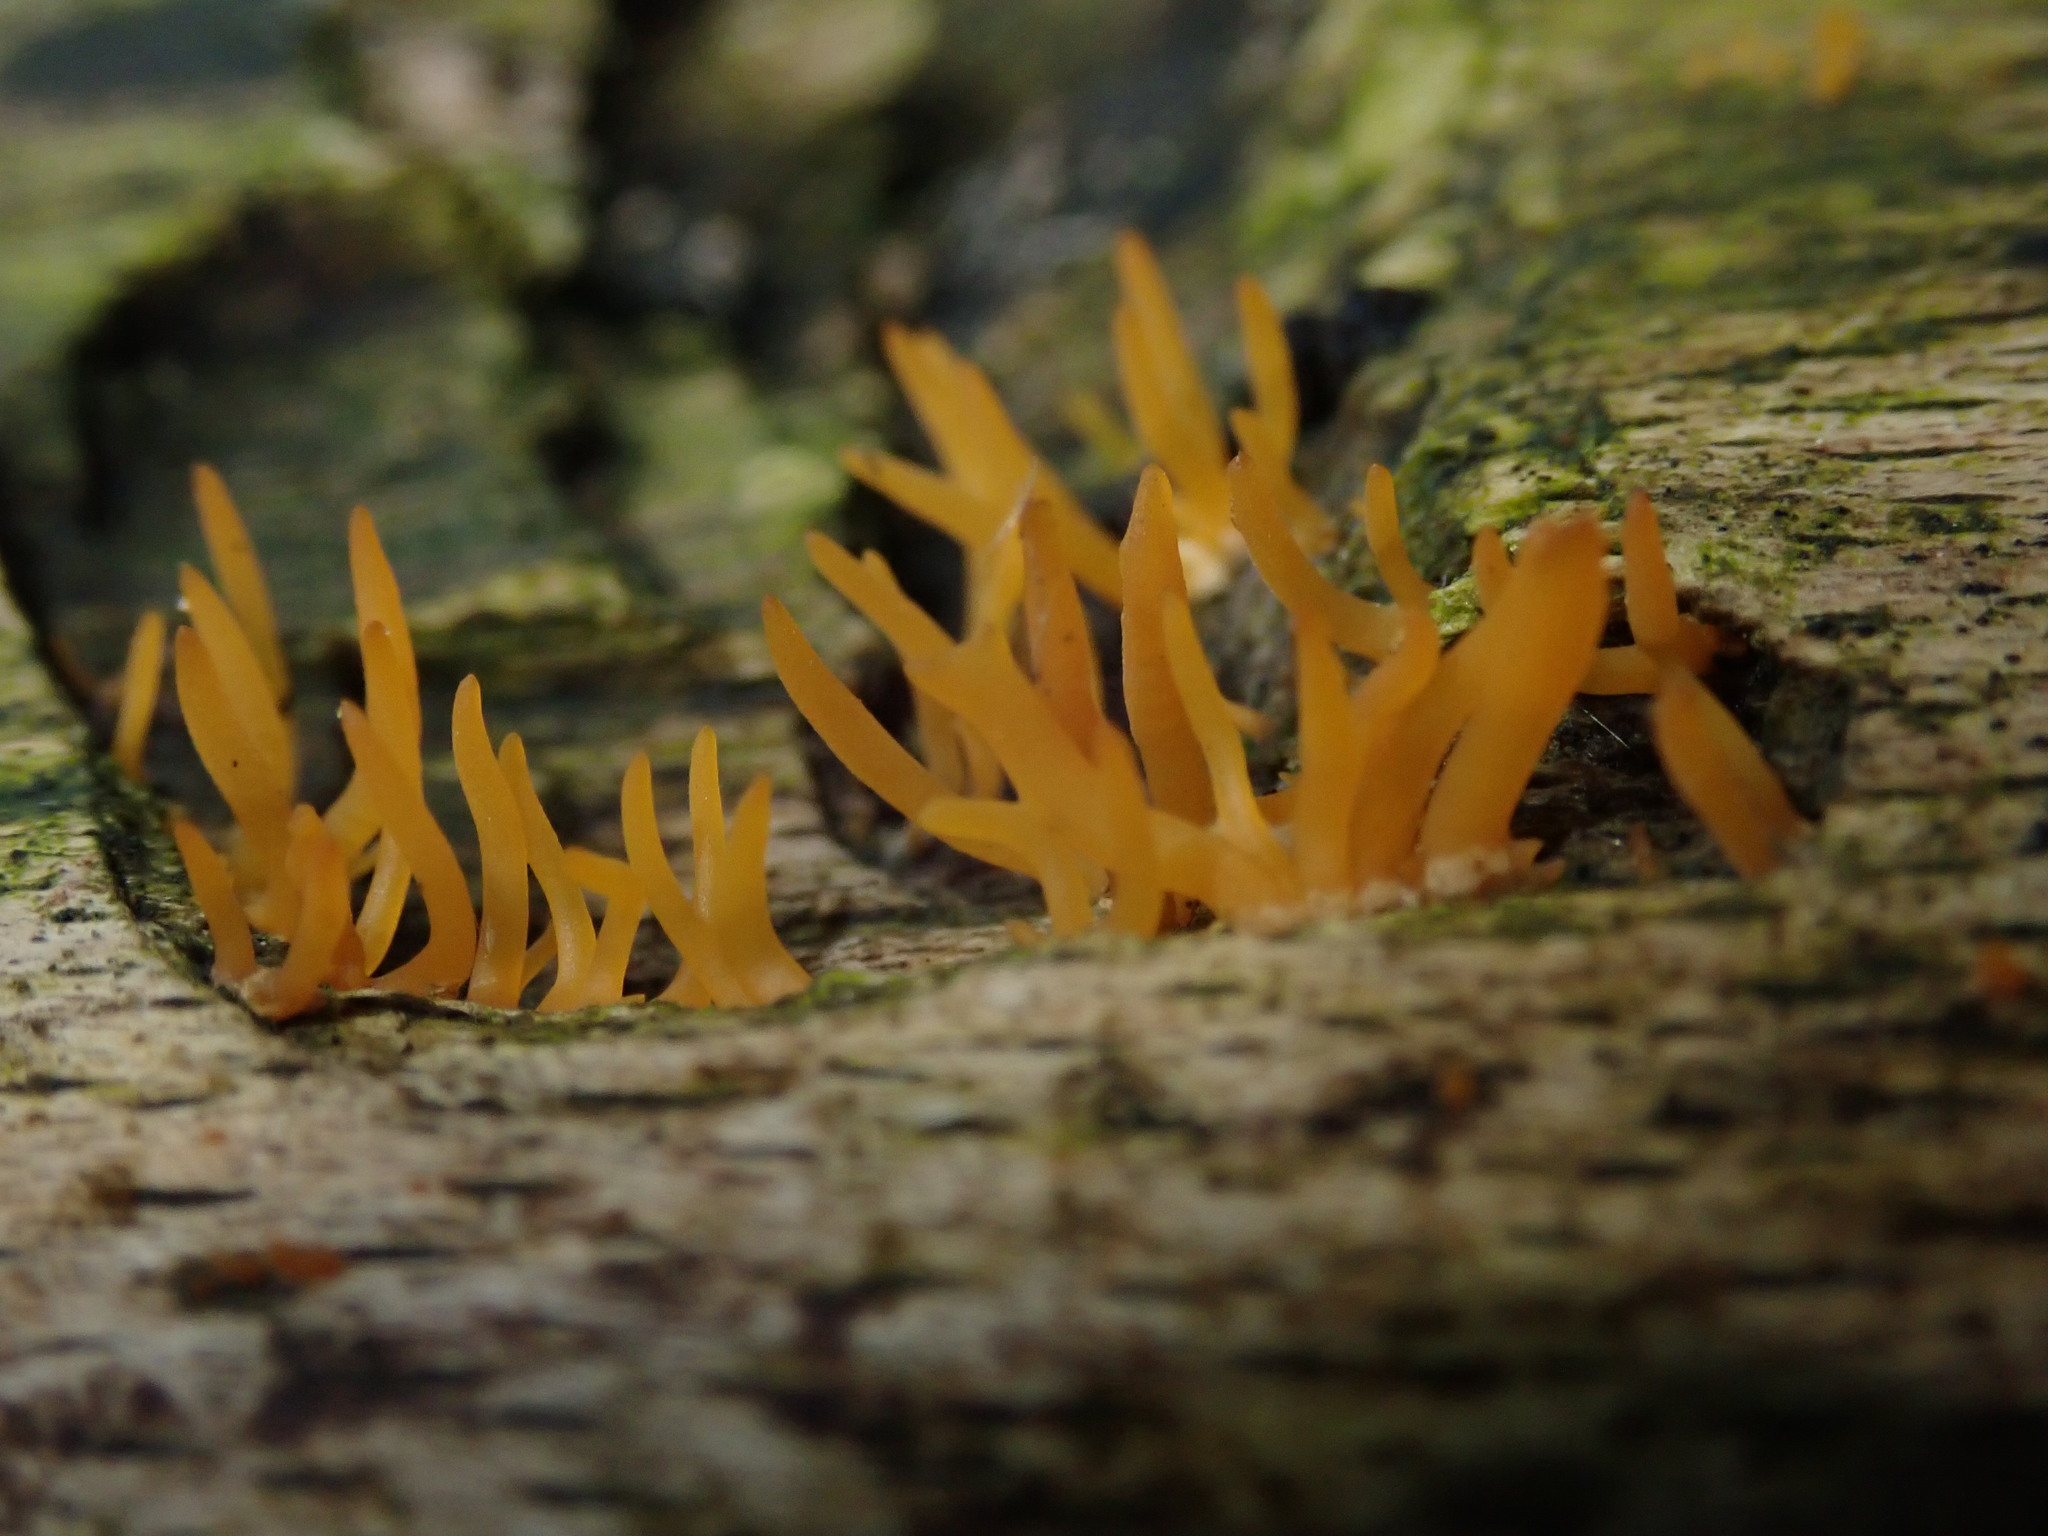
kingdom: Fungi
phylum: Basidiomycota
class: Dacrymycetes
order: Dacrymycetales
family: Dacrymycetaceae
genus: Calocera
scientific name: Calocera cornea
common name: Small stagshorn
